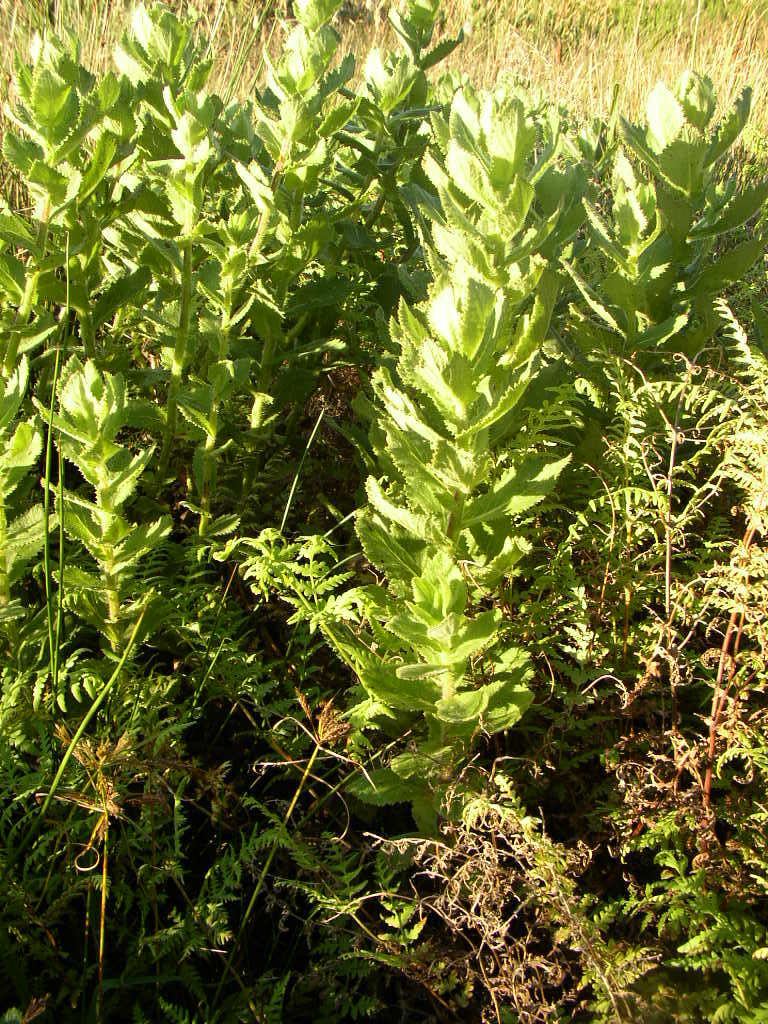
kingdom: Plantae
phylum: Tracheophyta
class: Magnoliopsida
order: Asterales
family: Asteraceae
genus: Senecio
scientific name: Senecio rigidus
